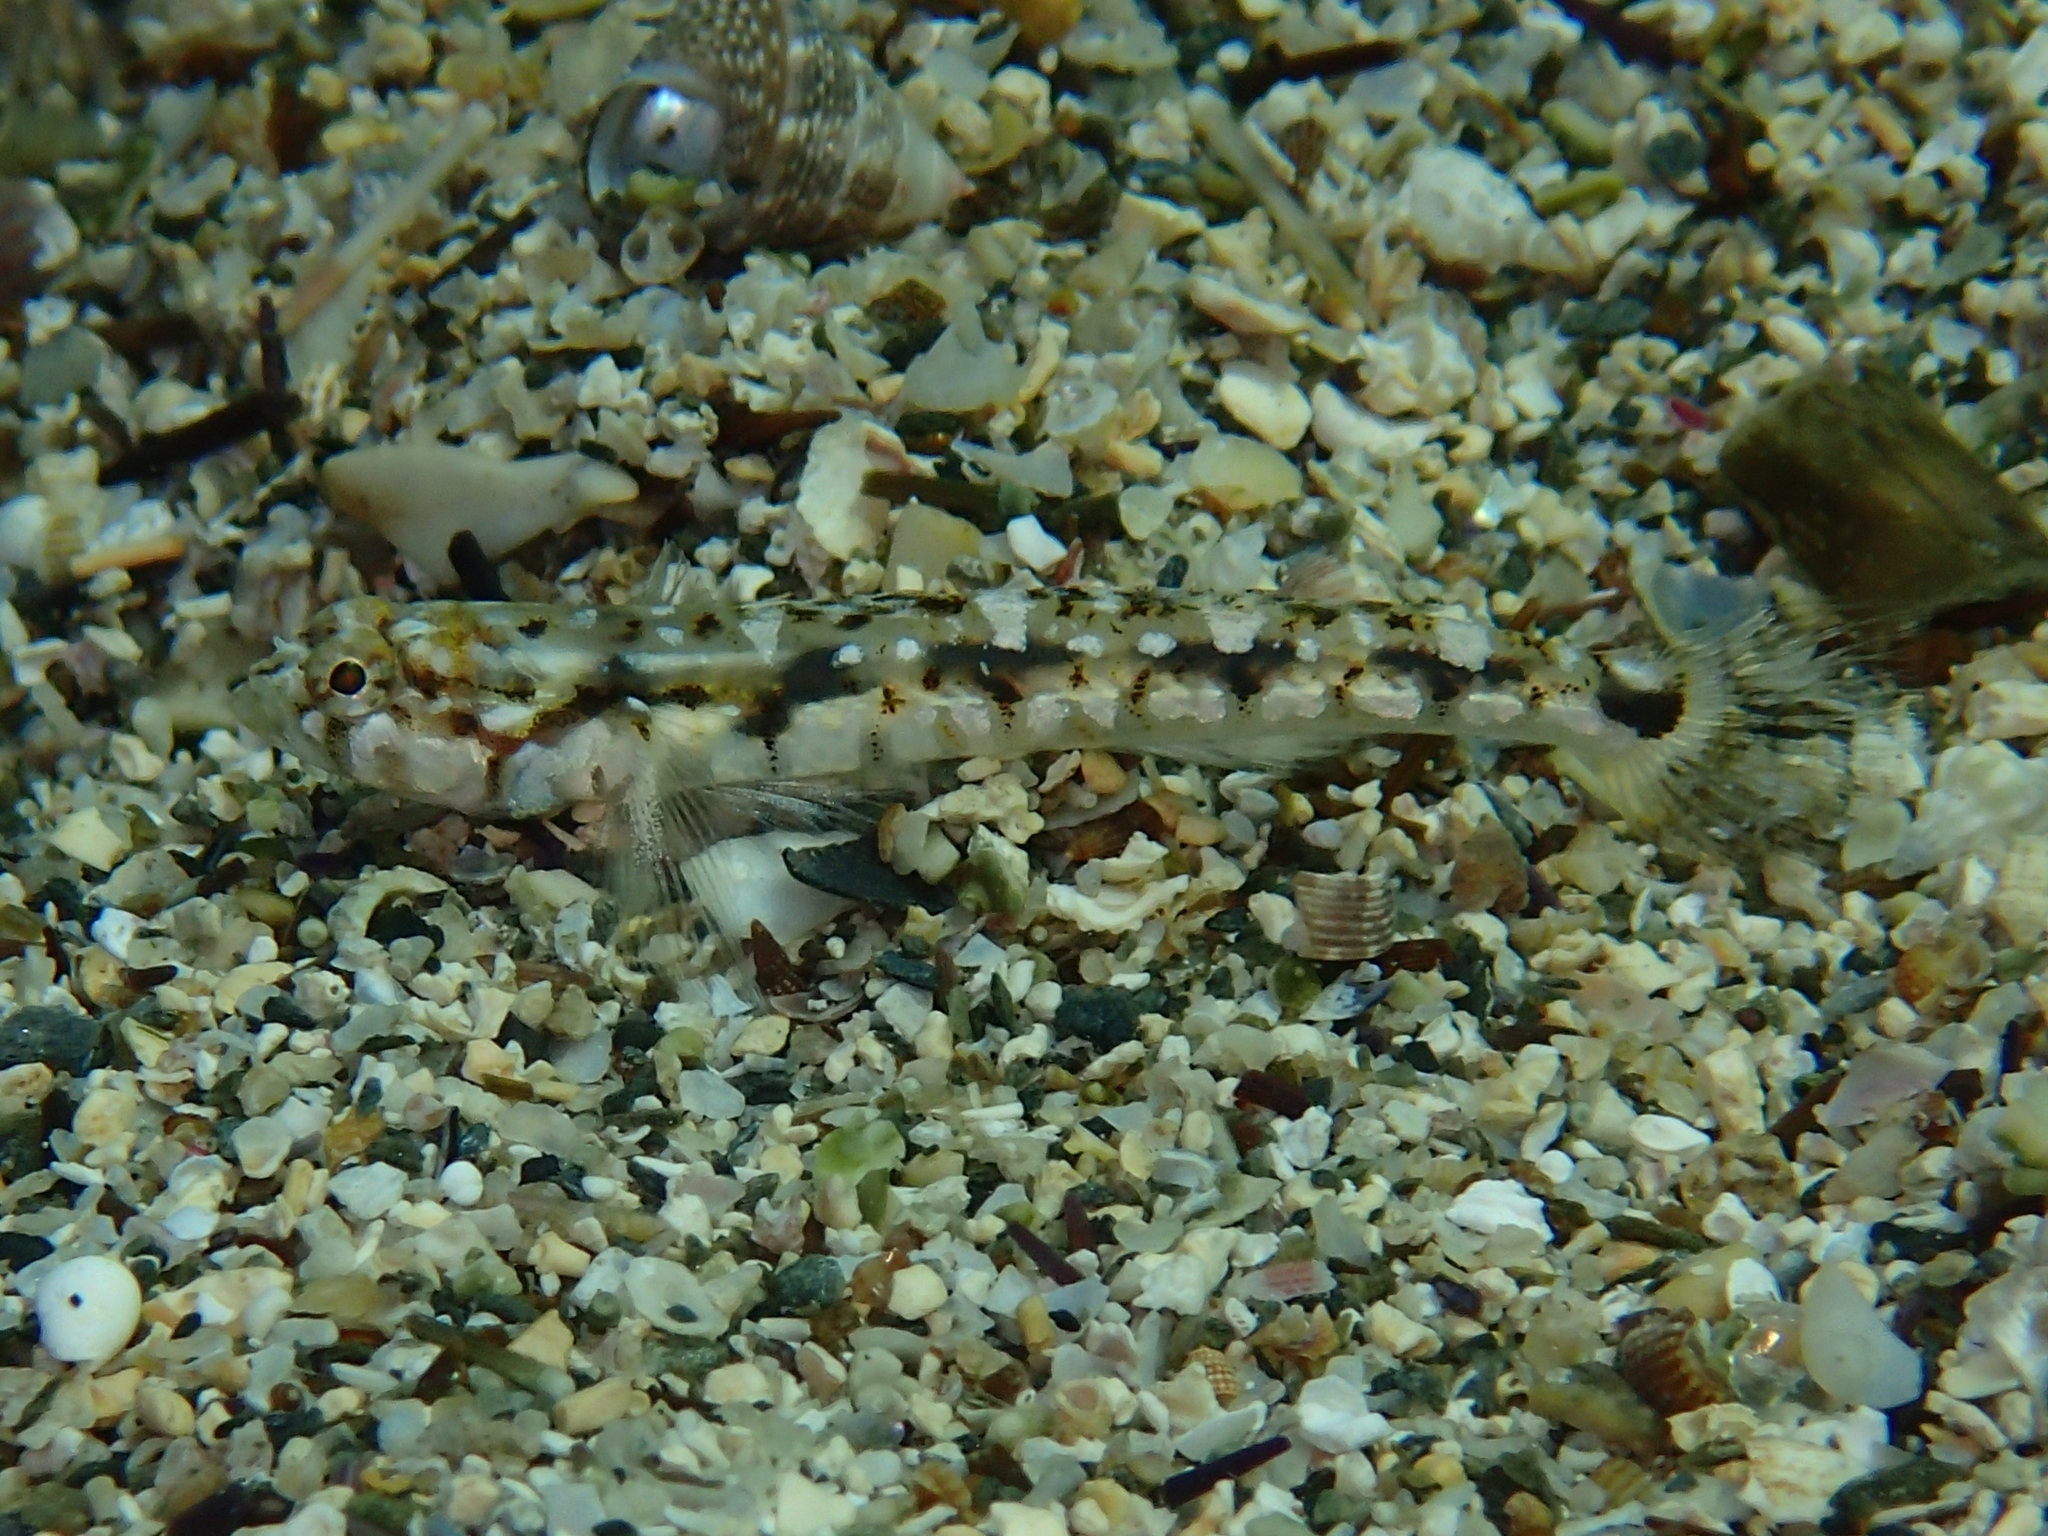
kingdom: Animalia
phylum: Chordata
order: Perciformes
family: Gobiidae
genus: Pomatoschistus
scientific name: Pomatoschistus bathi
